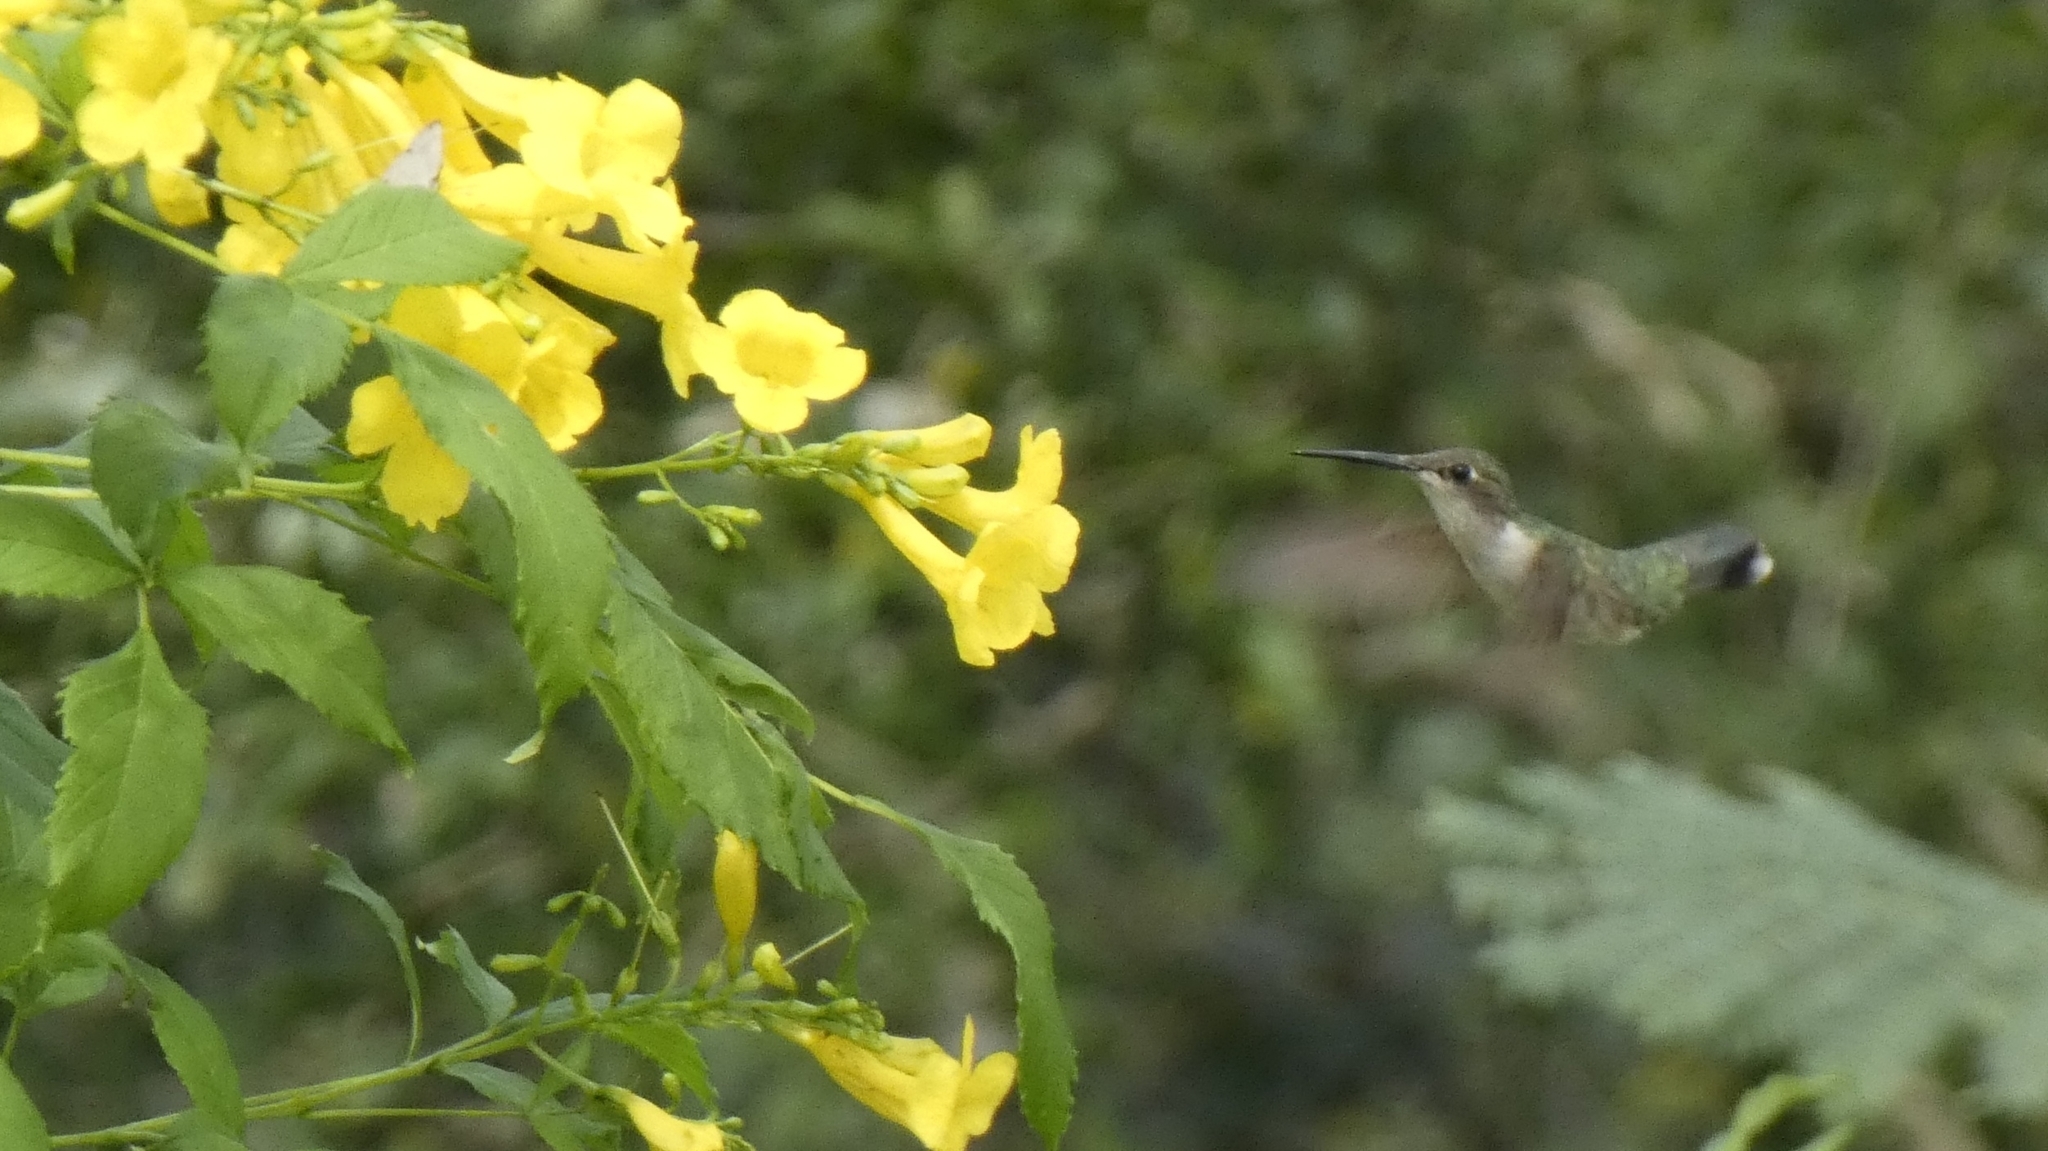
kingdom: Animalia
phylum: Chordata
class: Aves
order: Apodiformes
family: Trochilidae
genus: Archilochus
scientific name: Archilochus colubris
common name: Ruby-throated hummingbird
